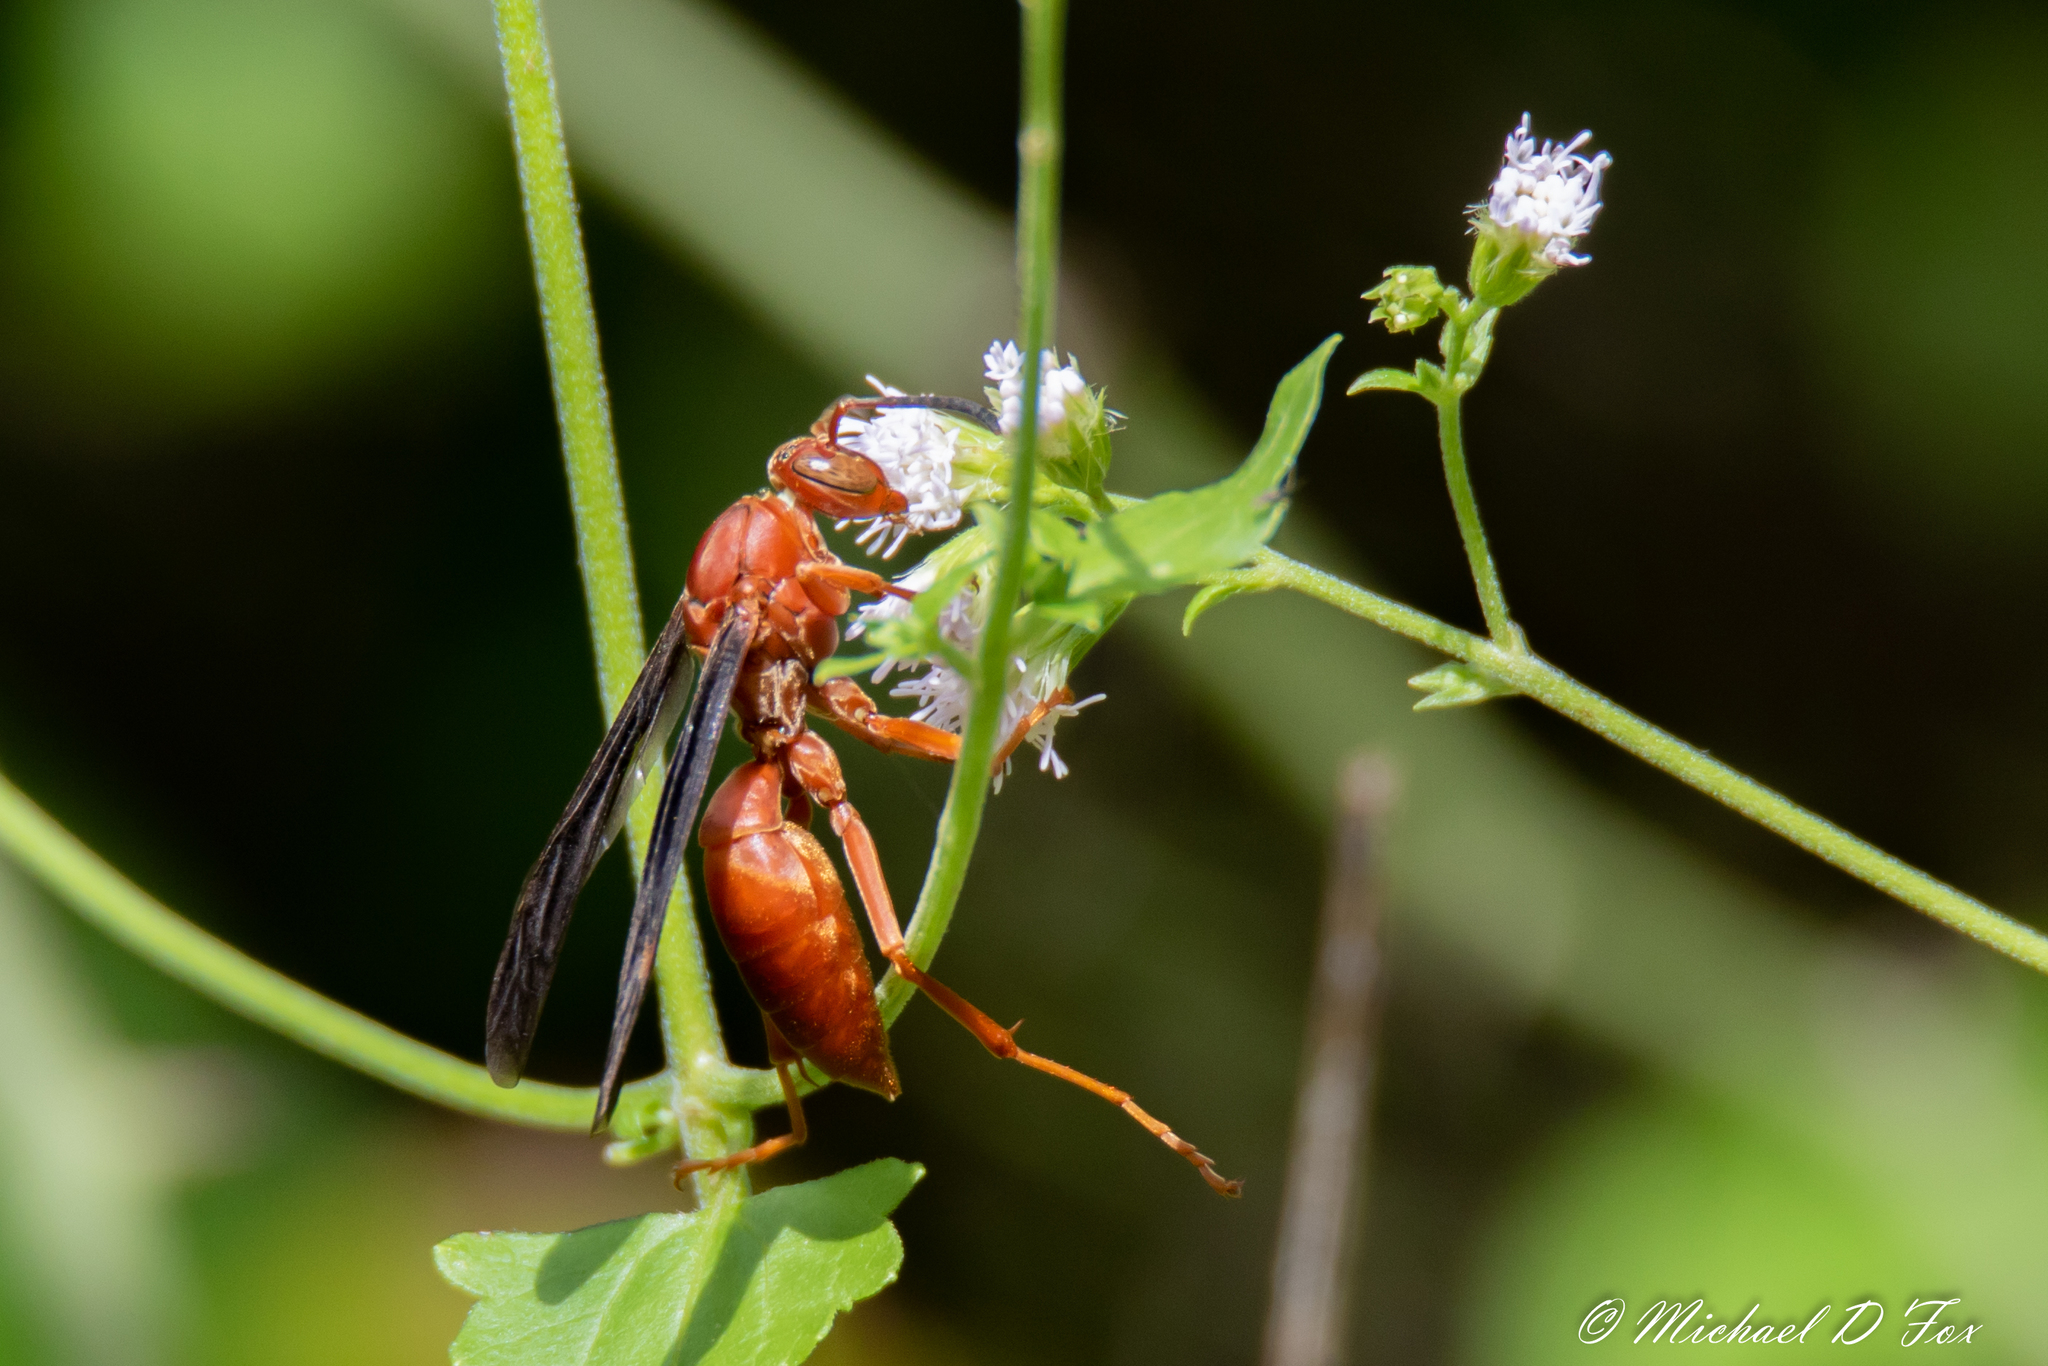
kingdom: Animalia
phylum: Arthropoda
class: Insecta
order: Hymenoptera
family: Vespidae
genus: Fuscopolistes
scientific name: Fuscopolistes
